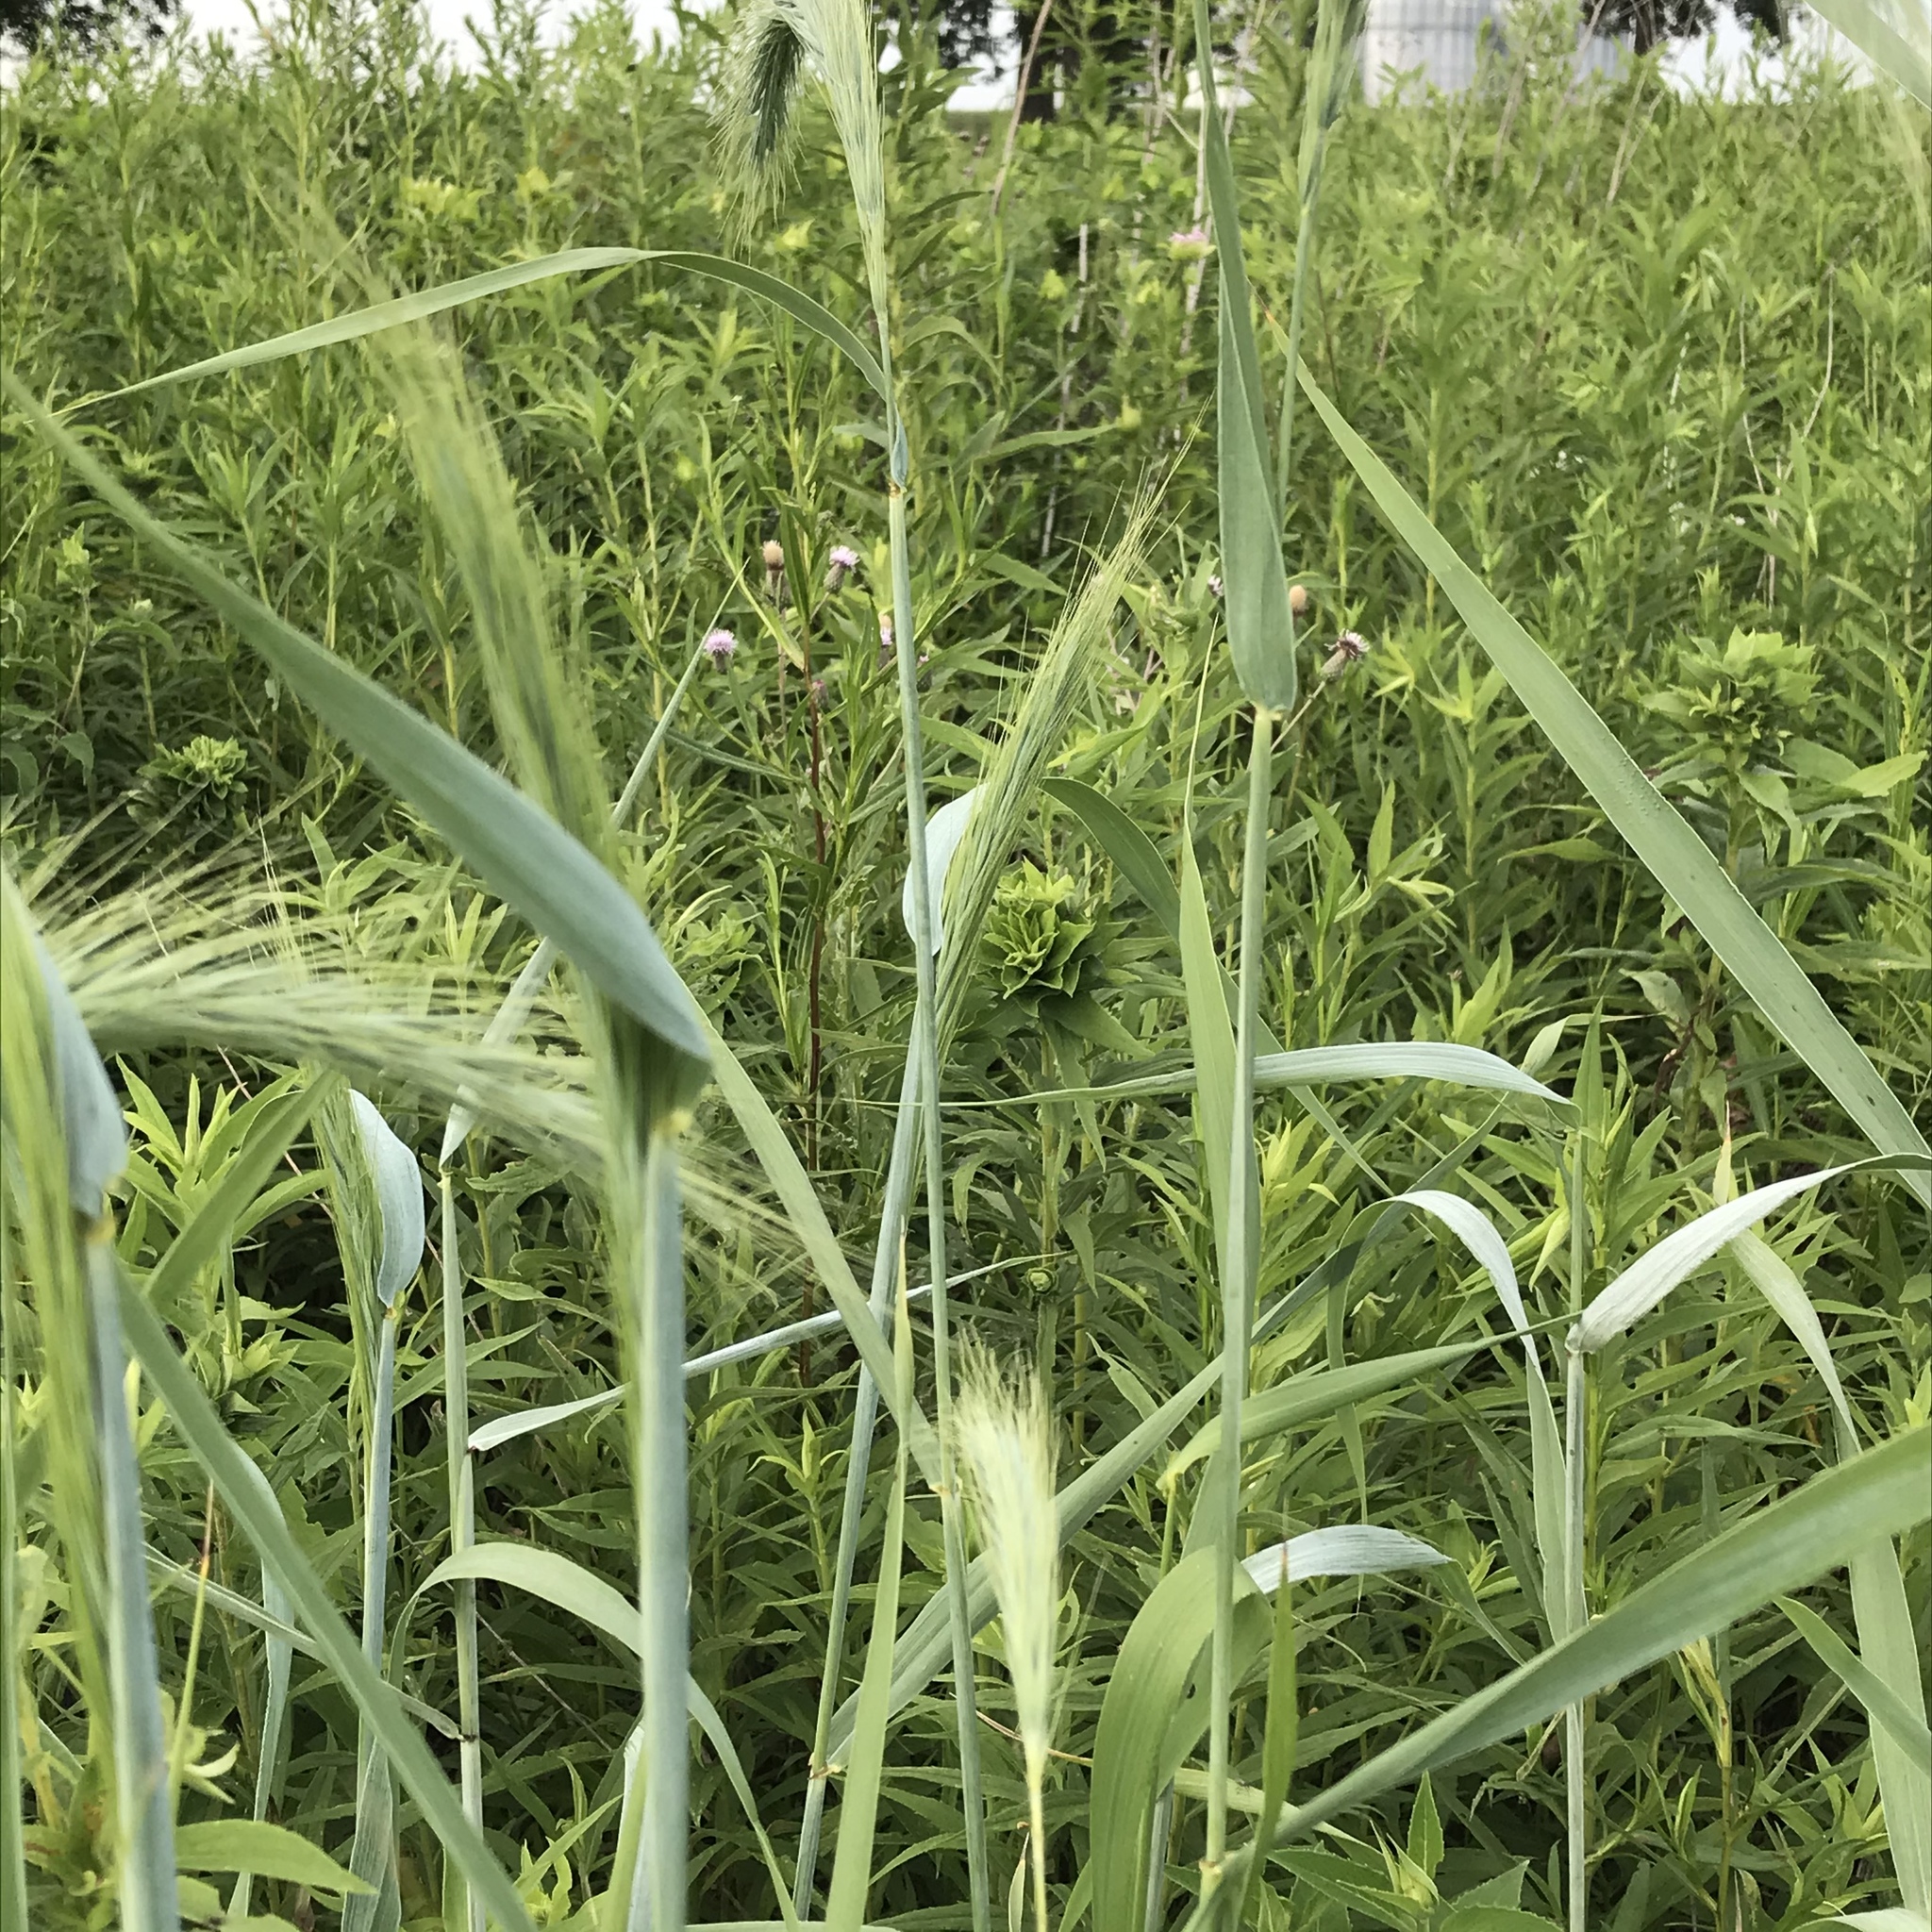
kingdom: Plantae
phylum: Tracheophyta
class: Liliopsida
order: Poales
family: Poaceae
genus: Elymus
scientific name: Elymus canadensis
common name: Canada wild rye
